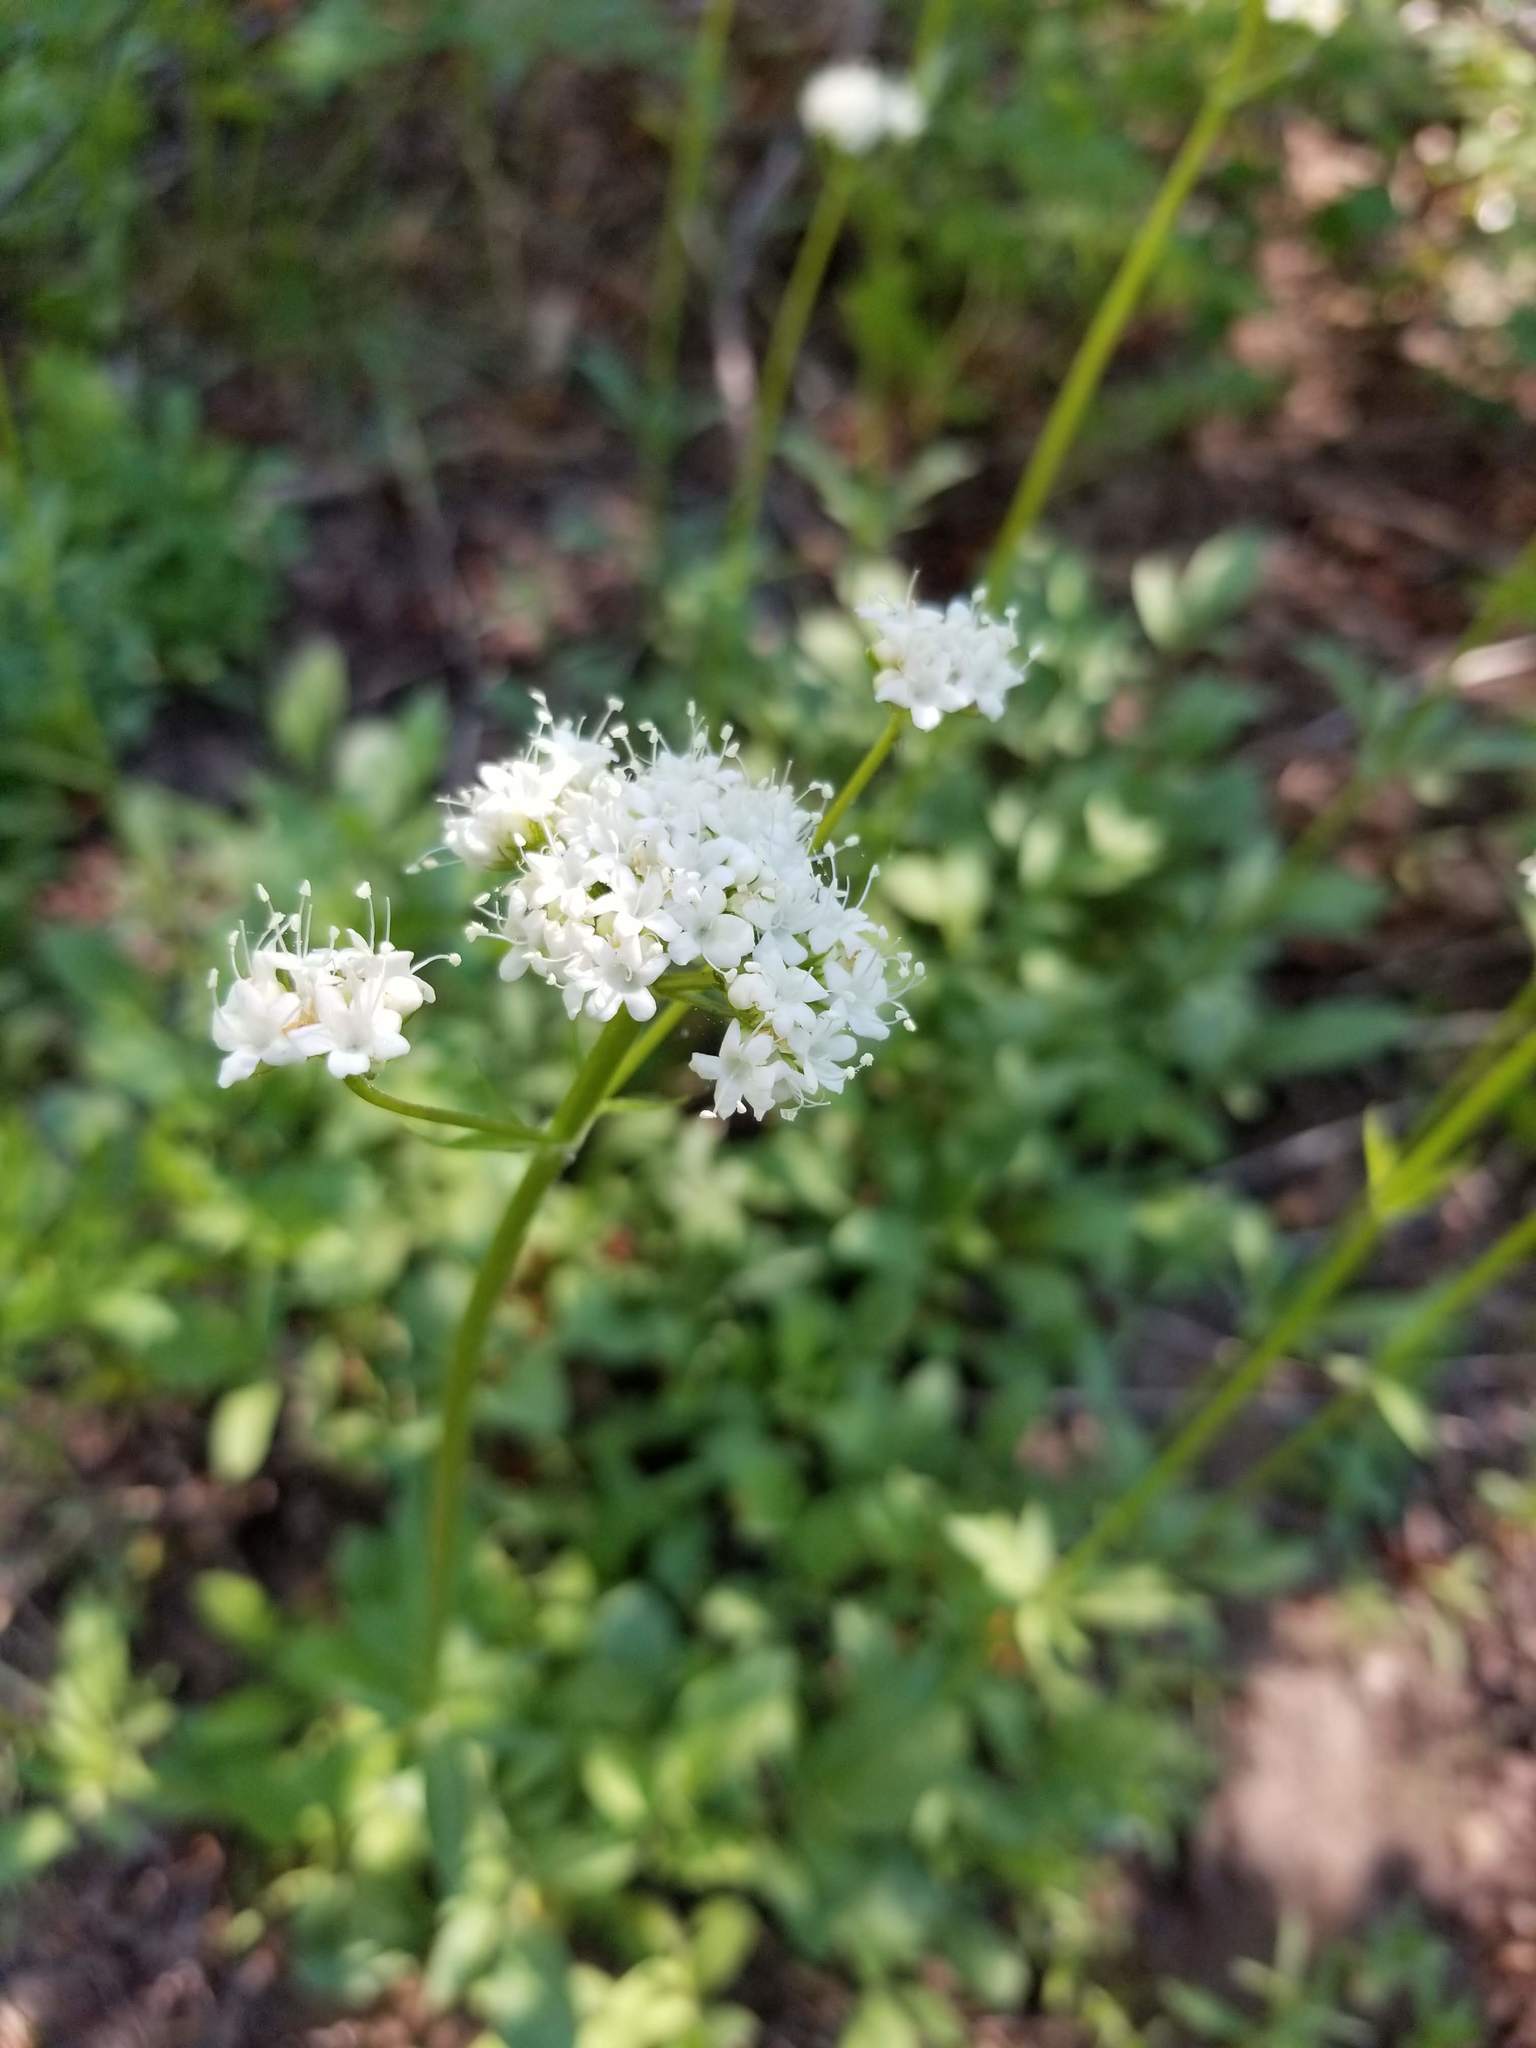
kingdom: Plantae
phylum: Tracheophyta
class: Magnoliopsida
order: Dipsacales
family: Caprifoliaceae
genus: Valeriana
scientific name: Valeriana californica
